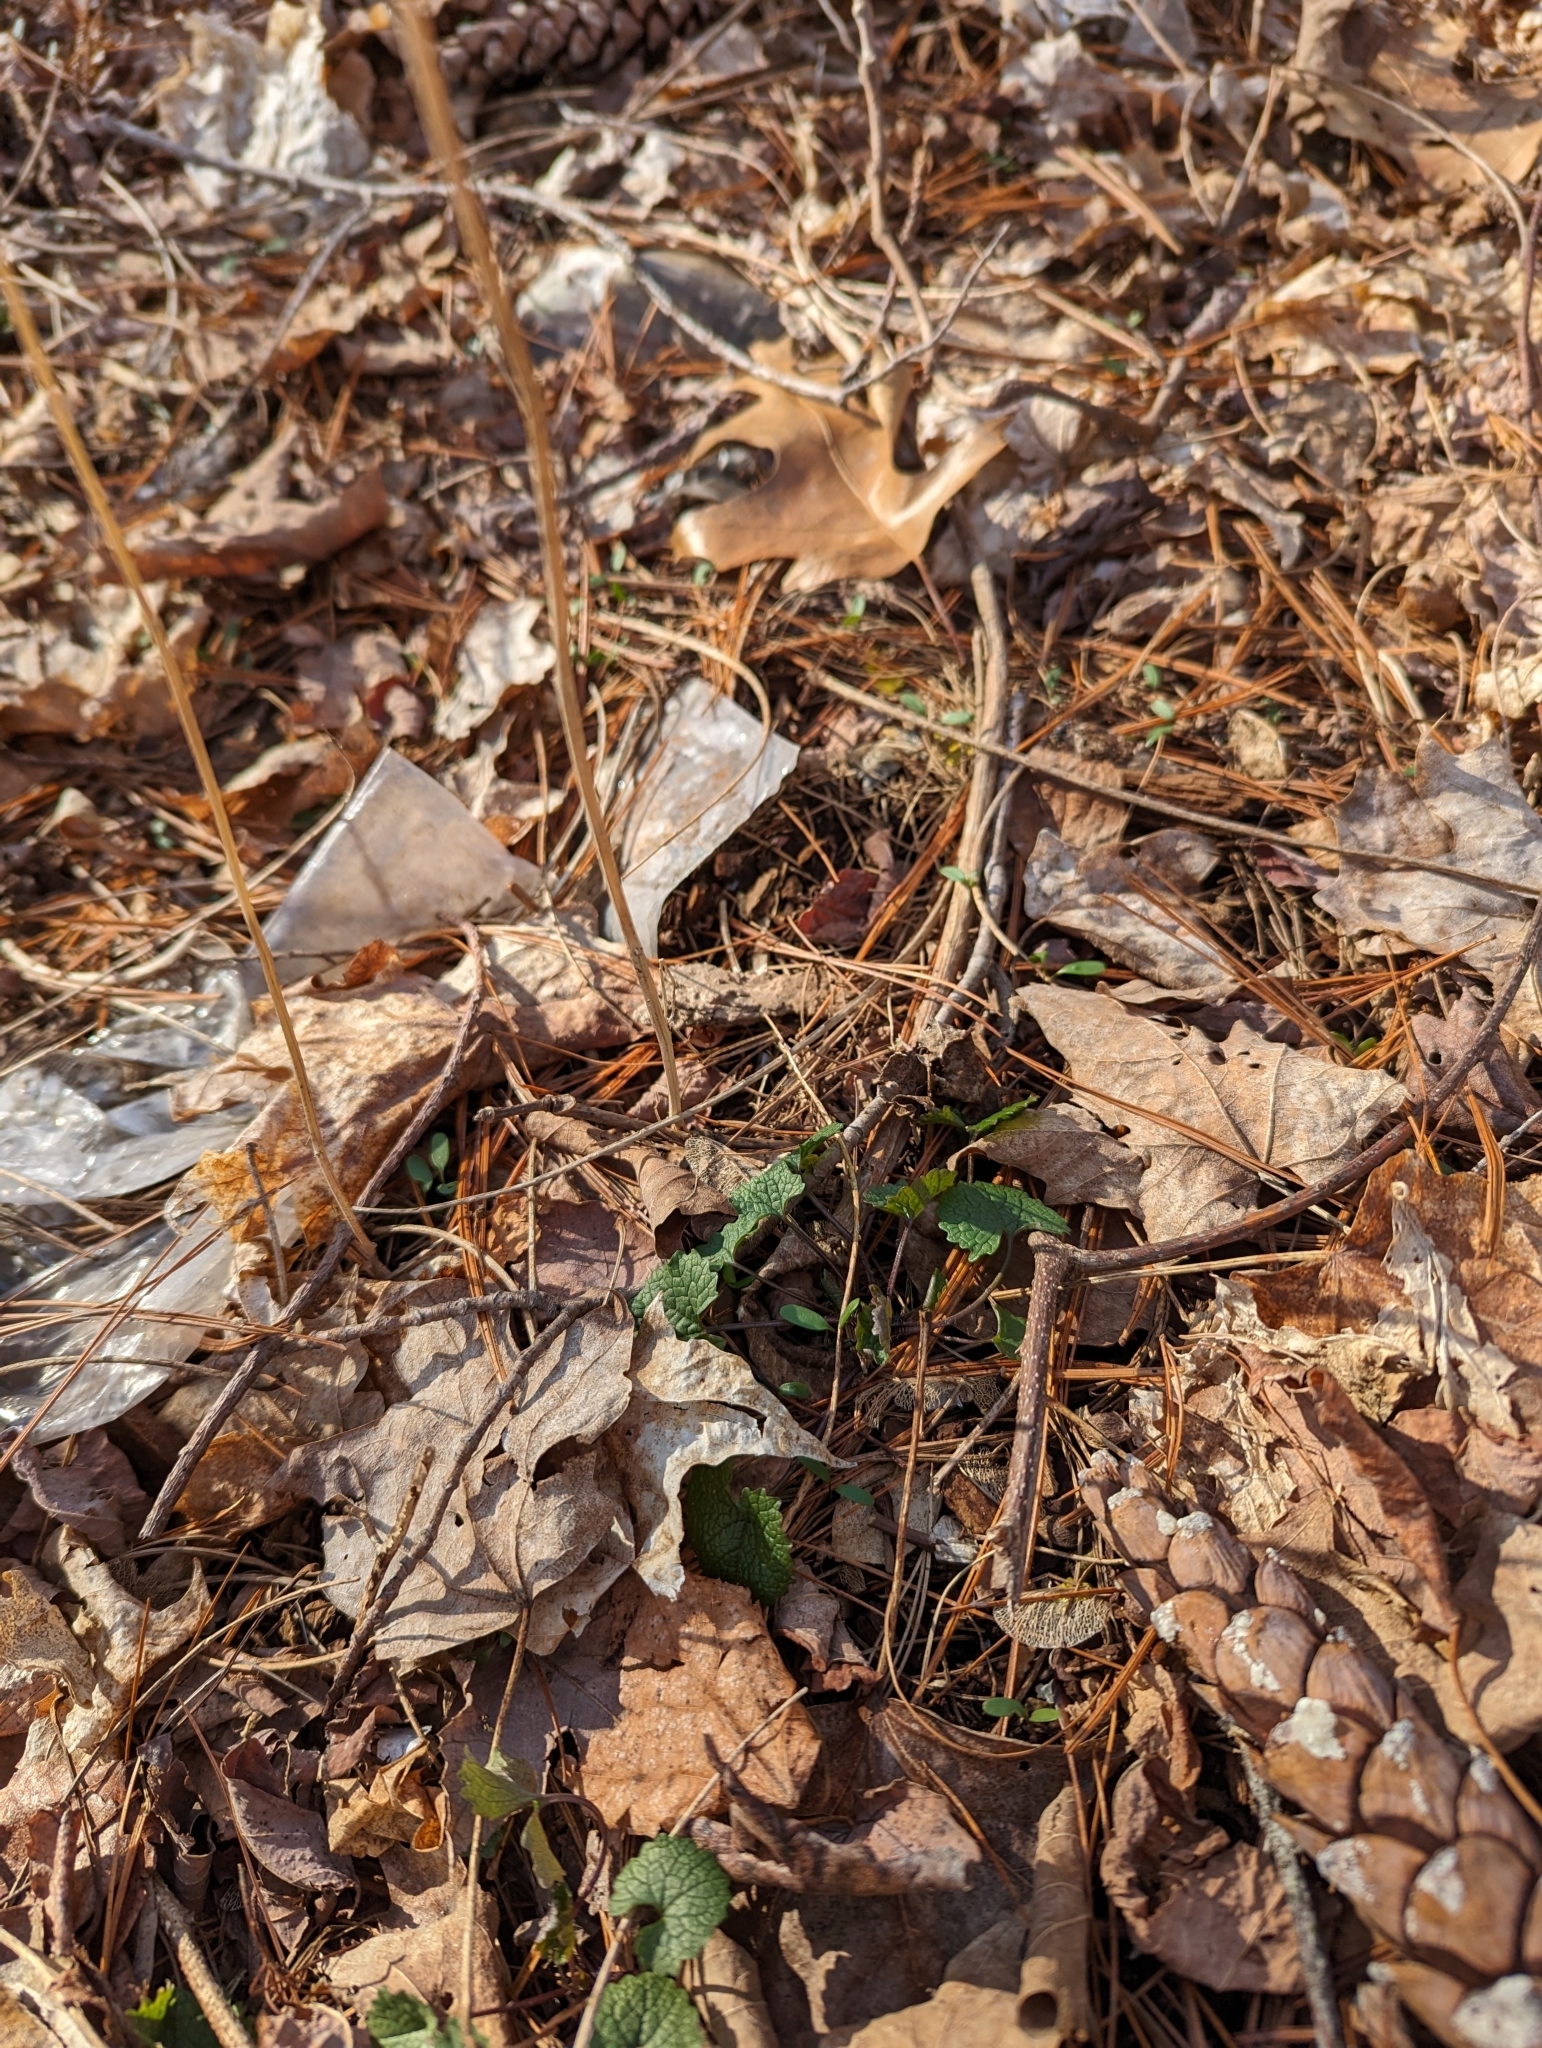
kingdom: Plantae
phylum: Tracheophyta
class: Magnoliopsida
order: Brassicales
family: Brassicaceae
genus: Alliaria
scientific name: Alliaria petiolata
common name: Garlic mustard
